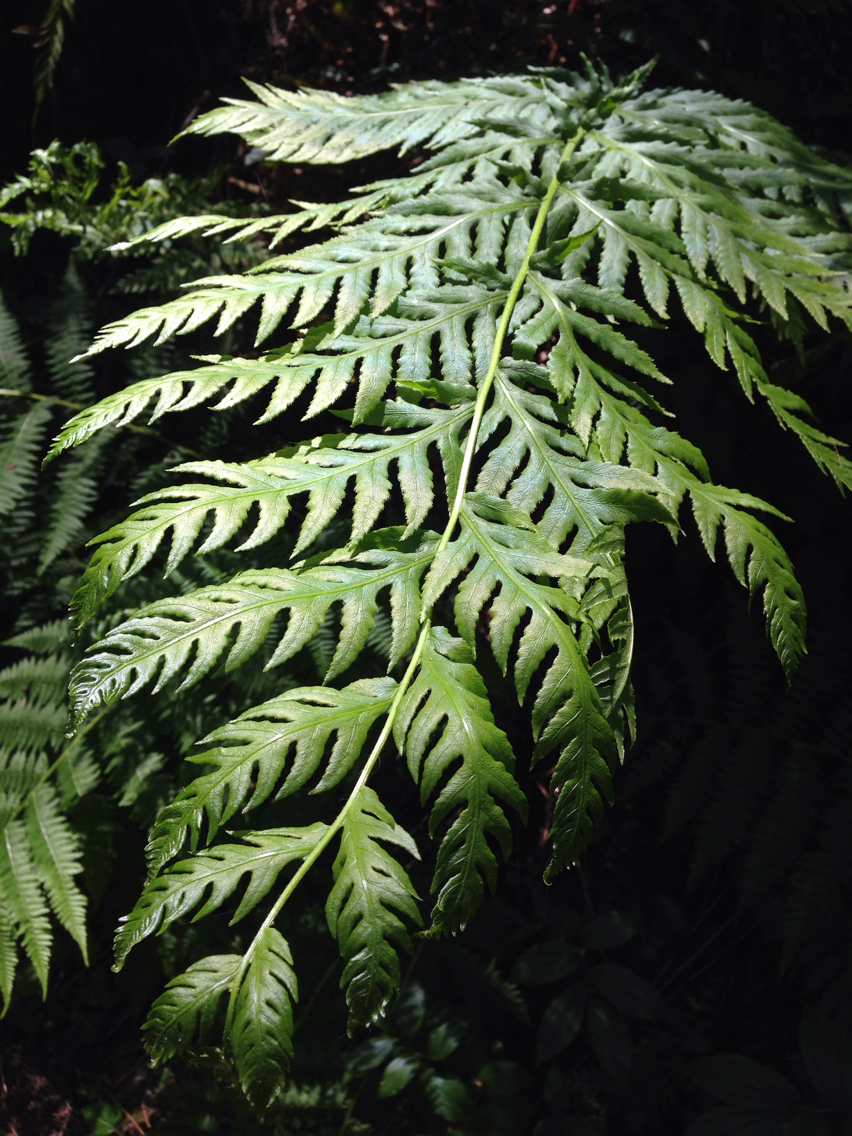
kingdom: Plantae
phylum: Tracheophyta
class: Polypodiopsida
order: Polypodiales
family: Blechnaceae
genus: Woodwardia
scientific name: Woodwardia fimbriata
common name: Giant chain fern
